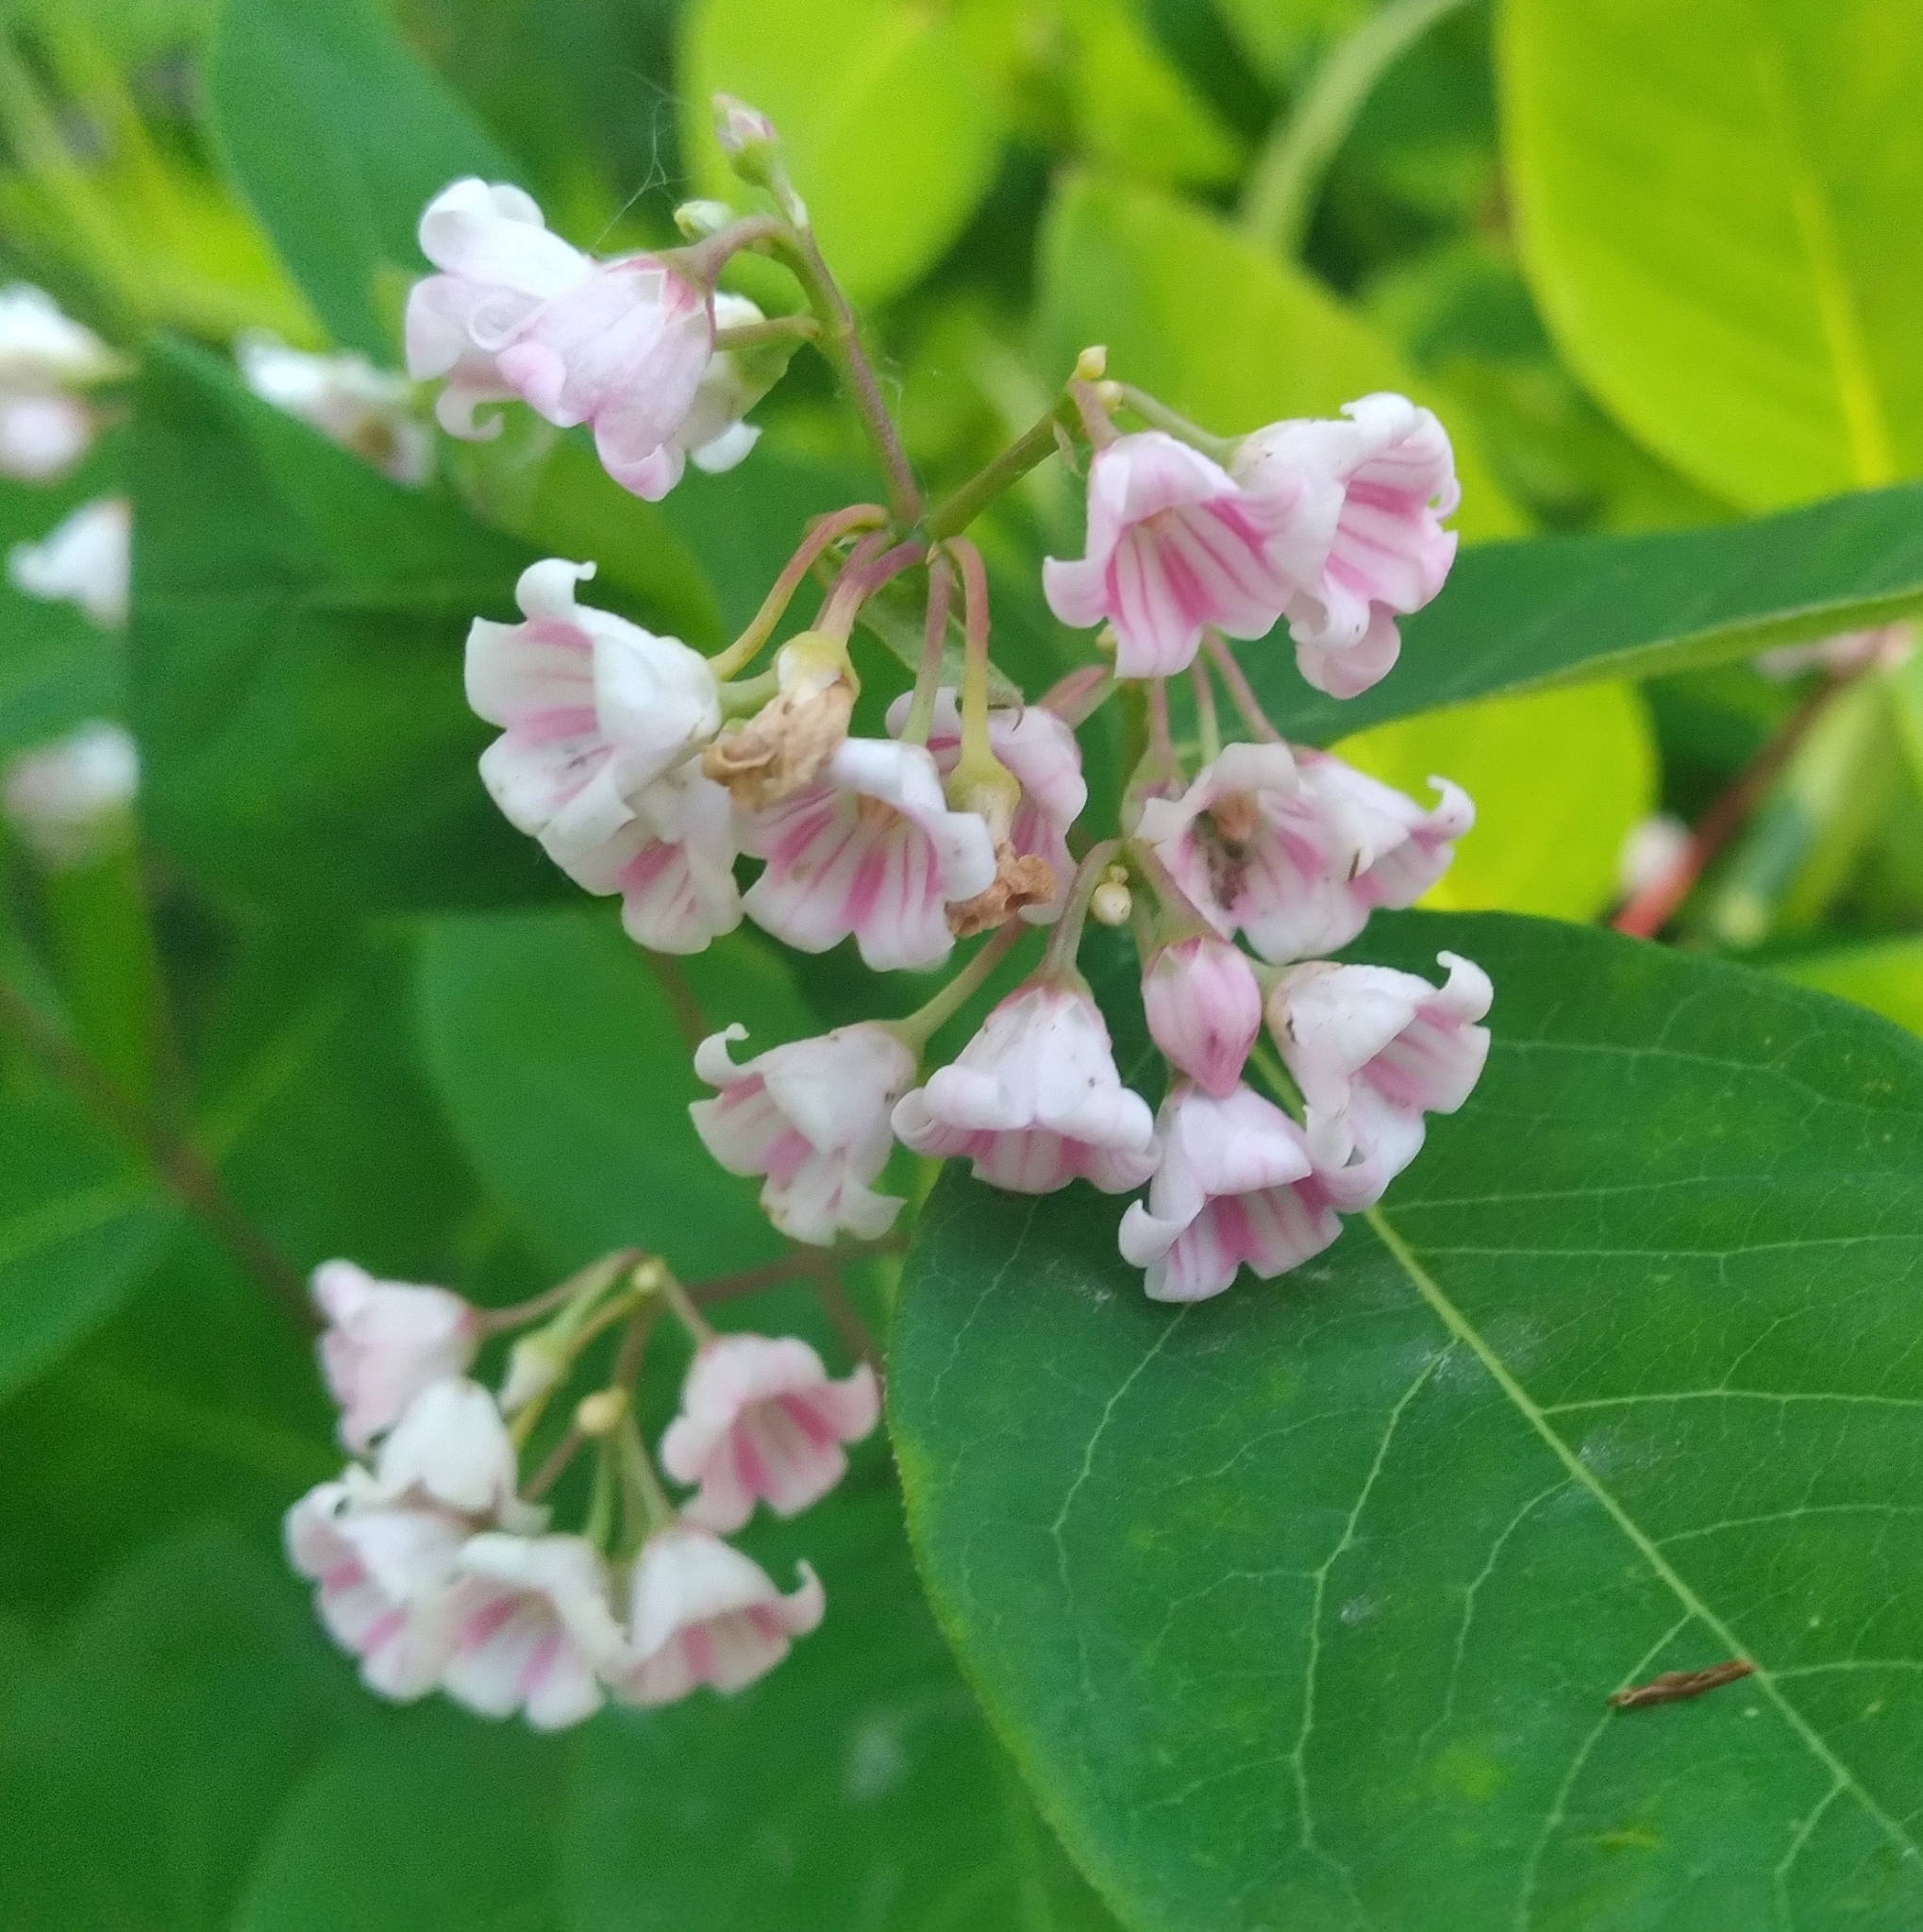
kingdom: Plantae
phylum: Tracheophyta
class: Magnoliopsida
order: Gentianales
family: Apocynaceae
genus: Apocynum
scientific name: Apocynum androsaemifolium
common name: Spreading dogbane
